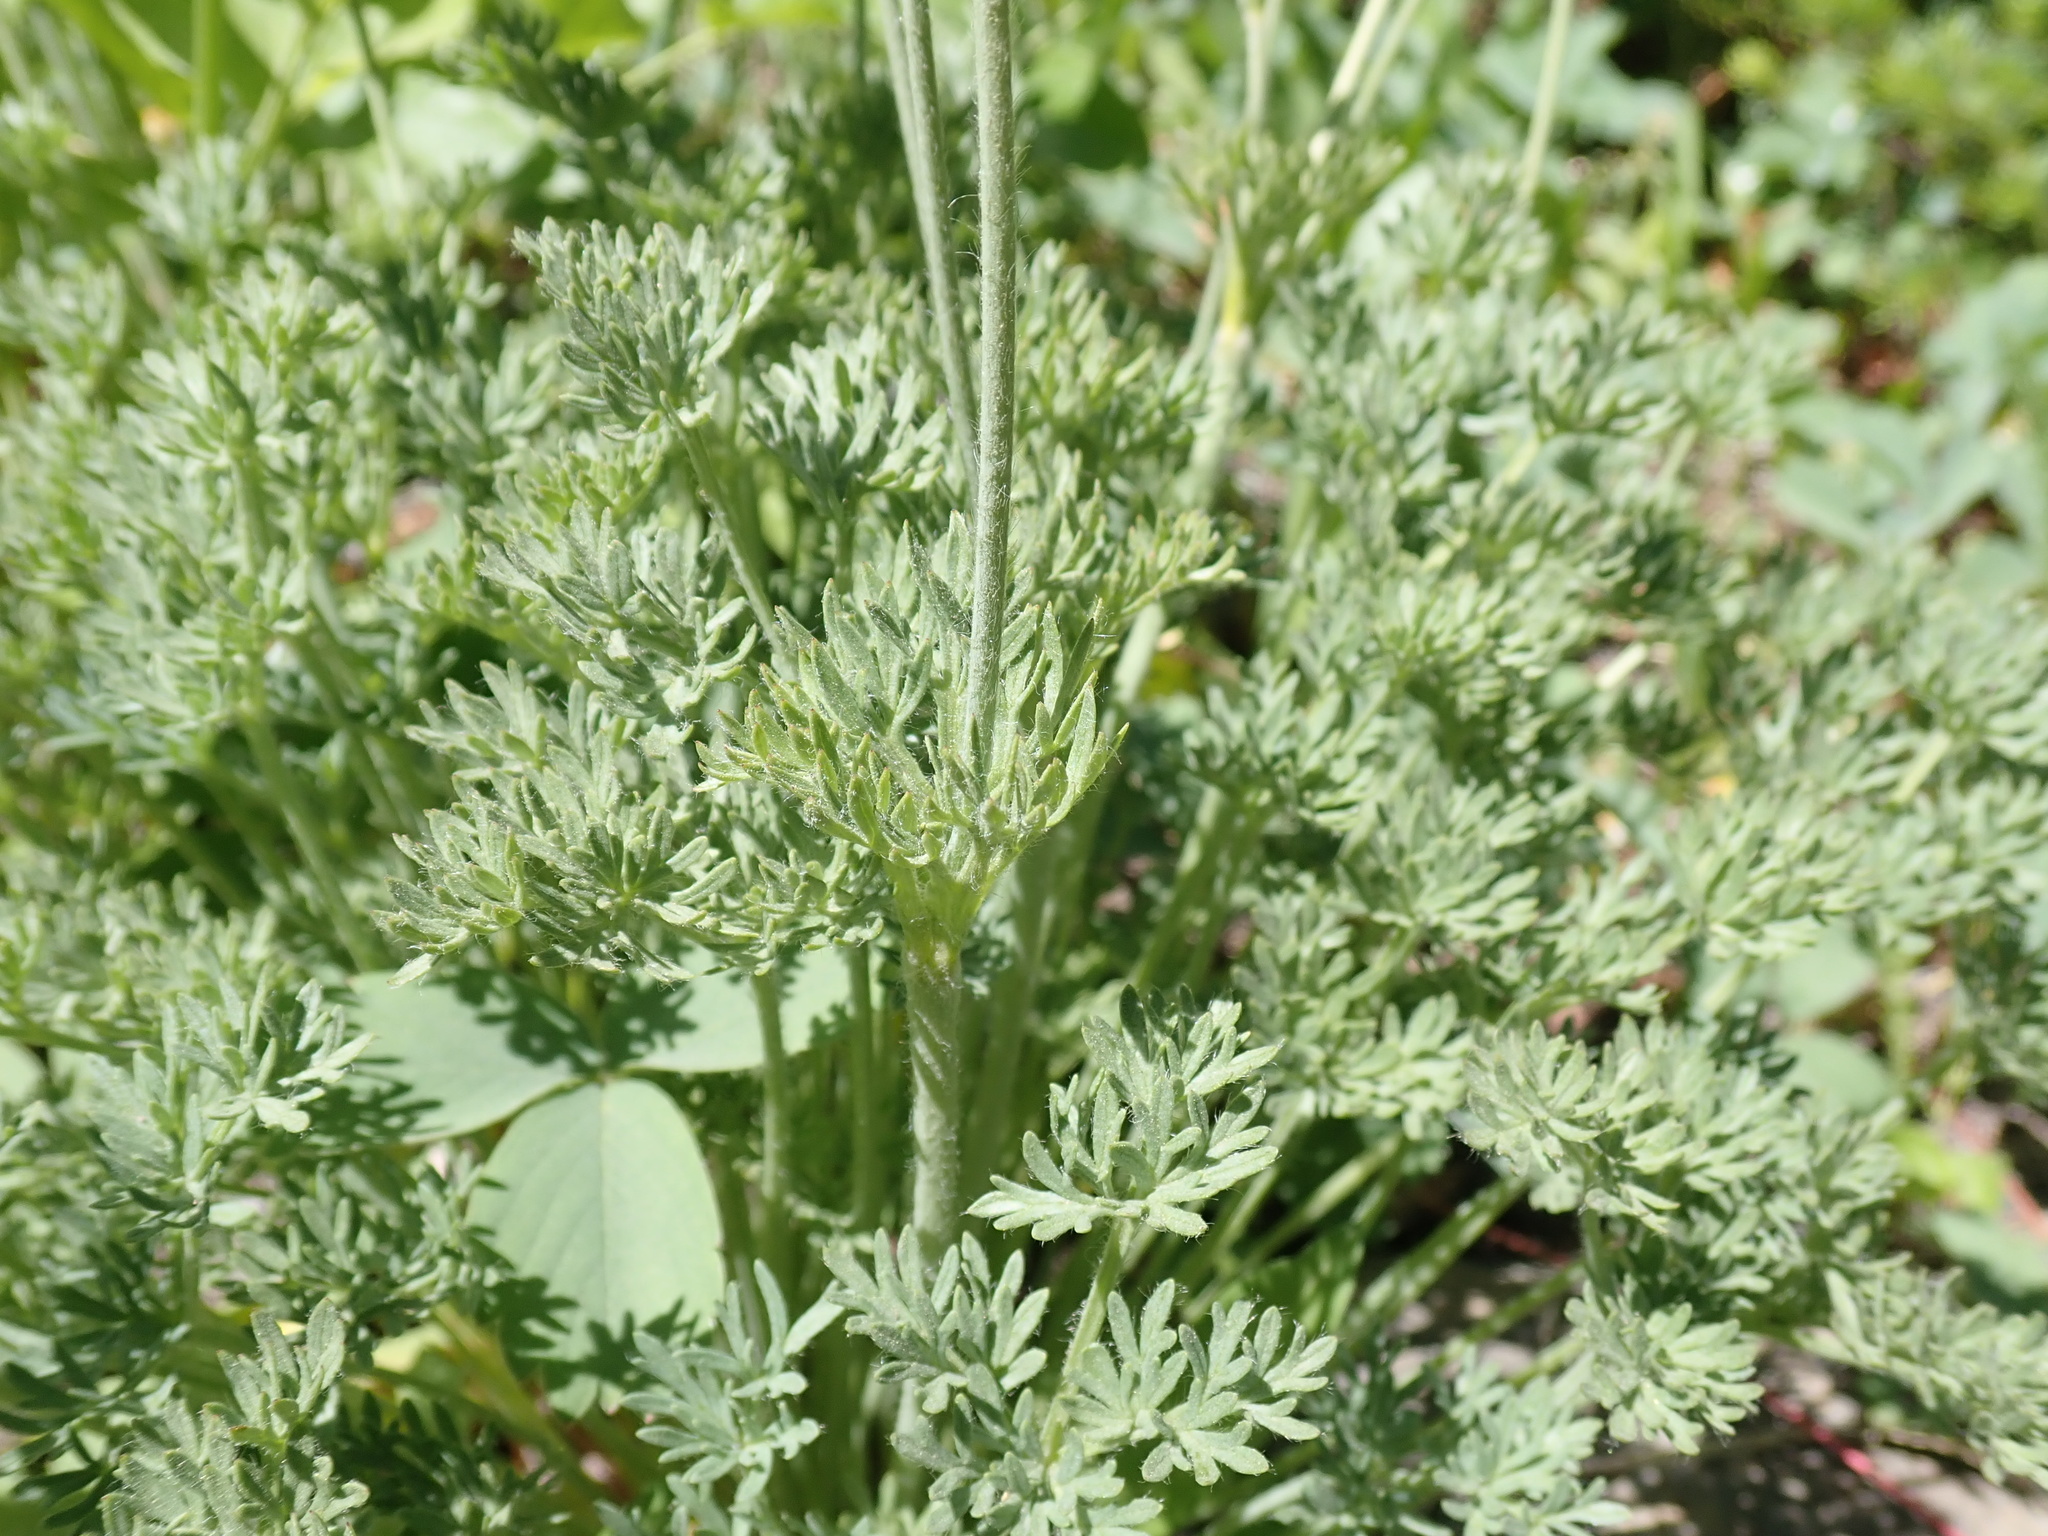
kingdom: Plantae
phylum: Tracheophyta
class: Magnoliopsida
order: Ranunculales
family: Ranunculaceae
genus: Anemone
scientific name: Anemone multifida
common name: Bird's-foot anemone
